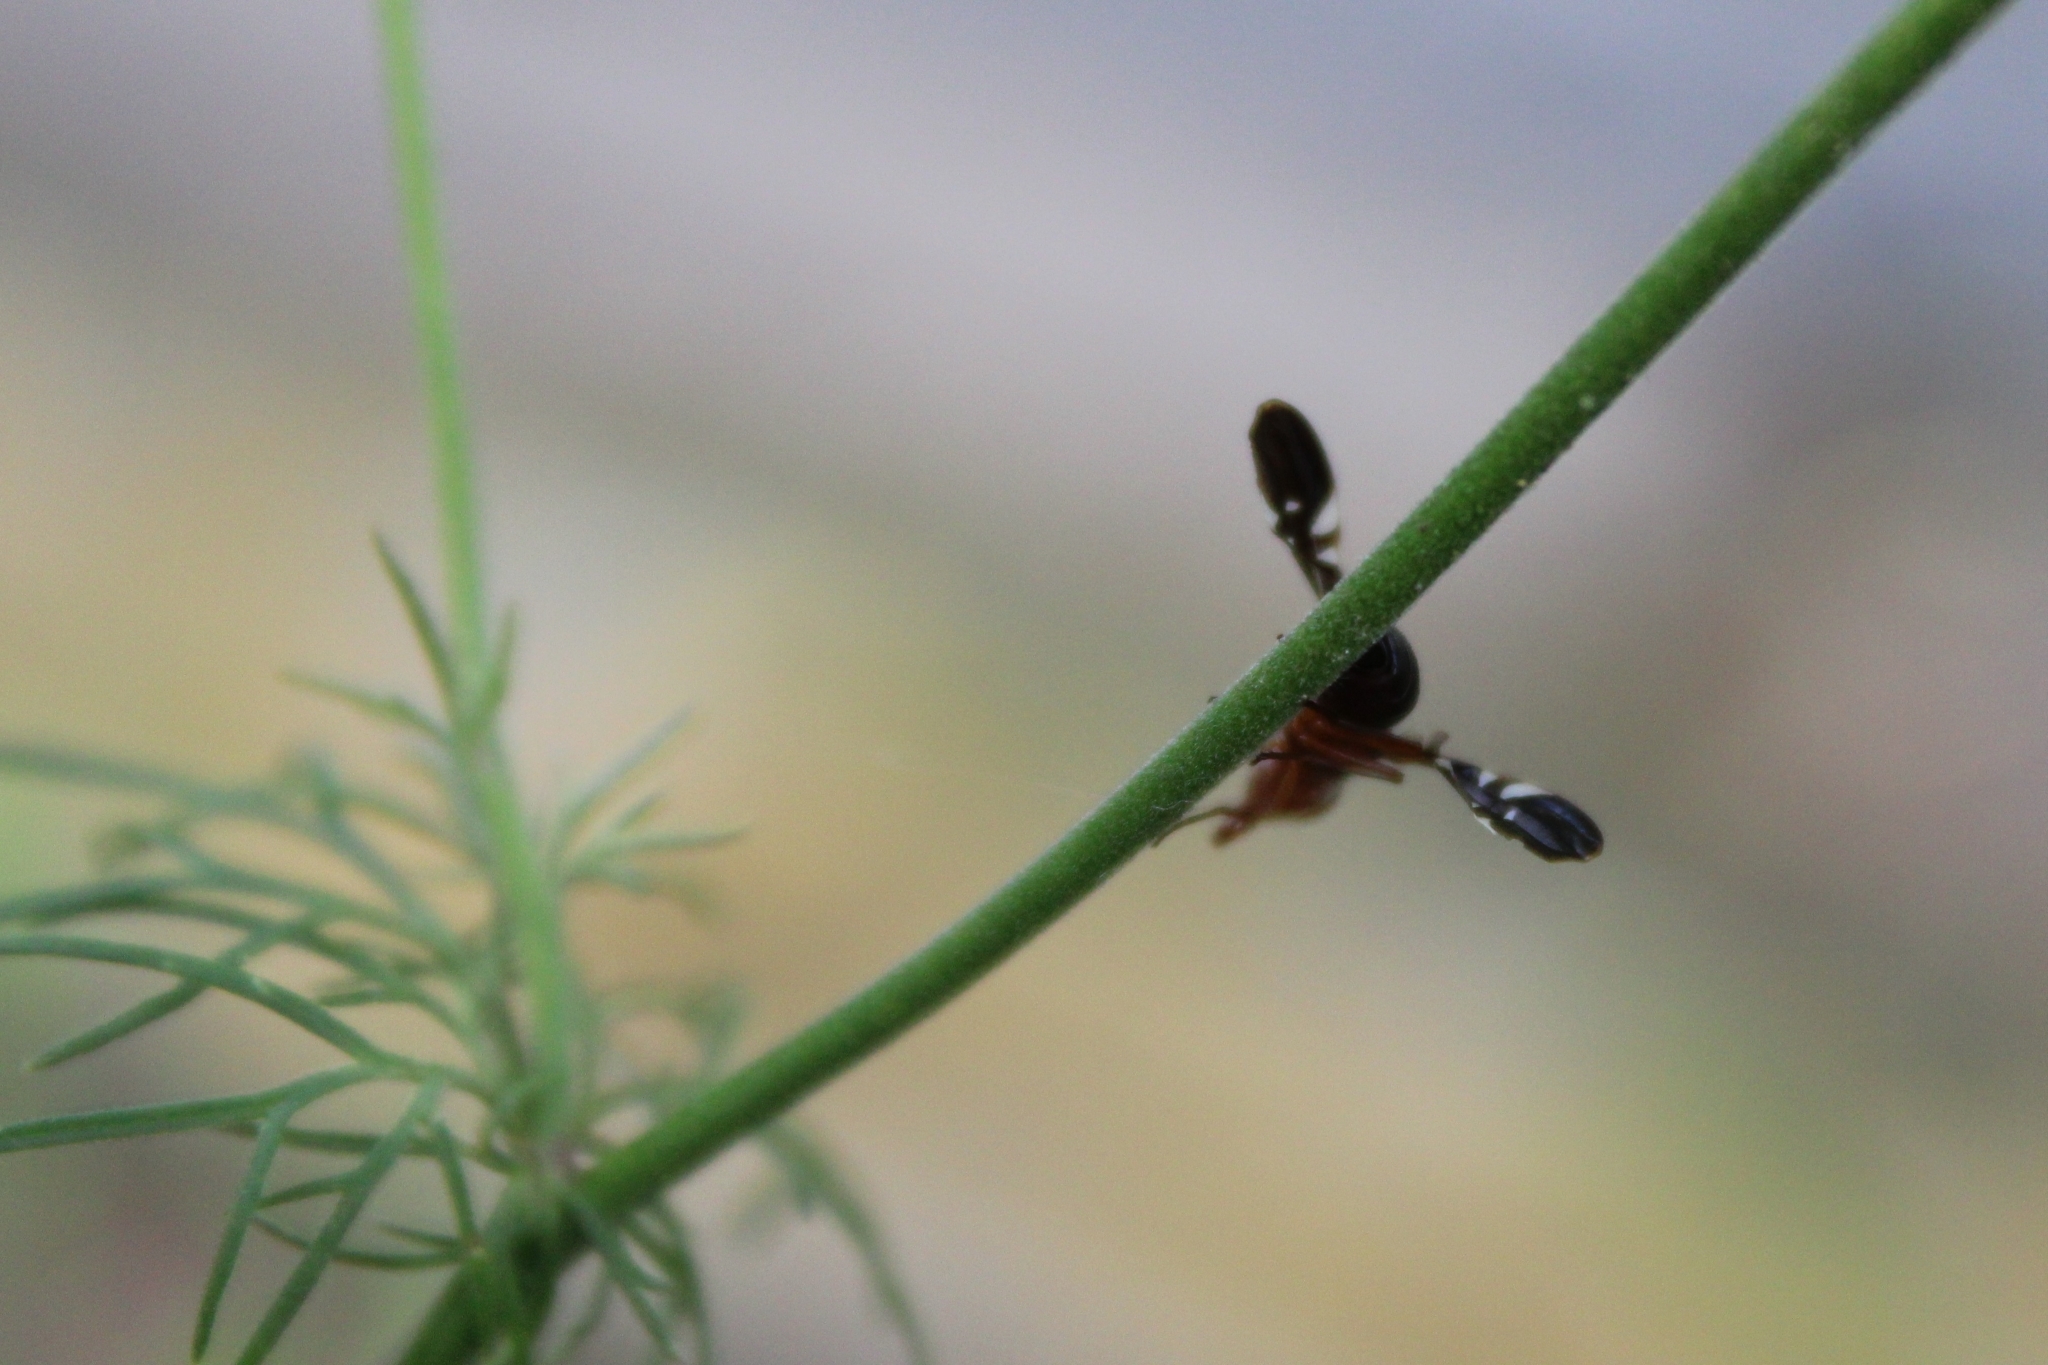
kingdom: Animalia
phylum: Arthropoda
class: Insecta
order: Diptera
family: Ulidiidae
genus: Delphinia
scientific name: Delphinia picta
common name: Common picture-winged fly
